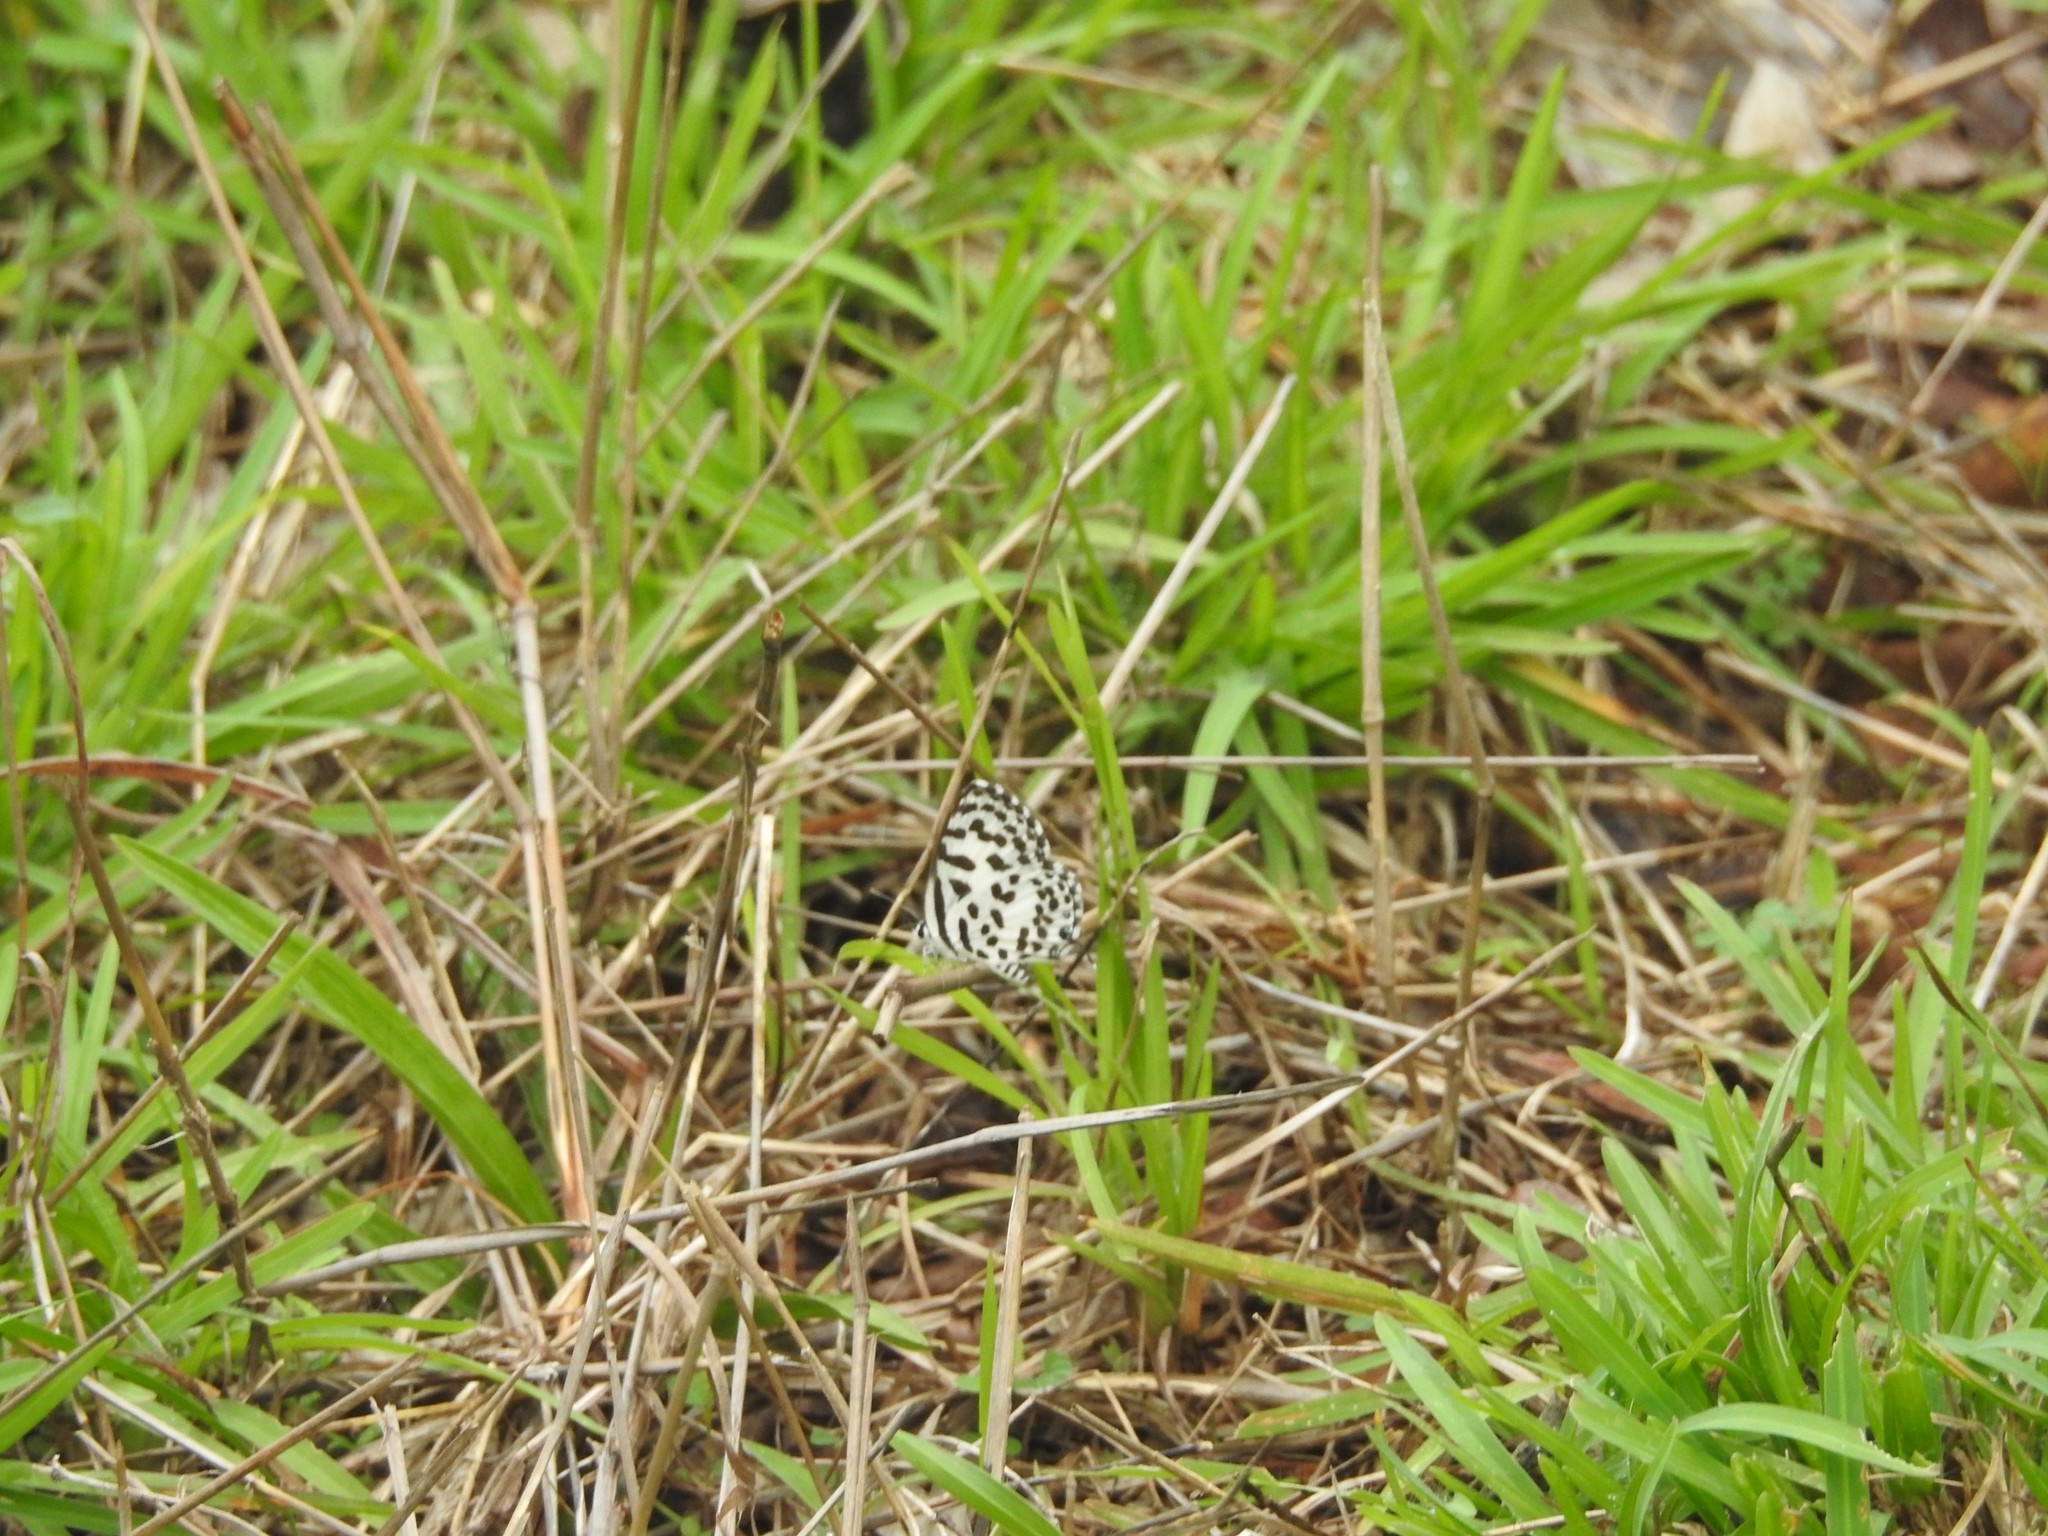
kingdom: Animalia
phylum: Arthropoda
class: Insecta
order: Lepidoptera
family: Lycaenidae
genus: Castalius
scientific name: Castalius rosimon
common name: Common pierrot
